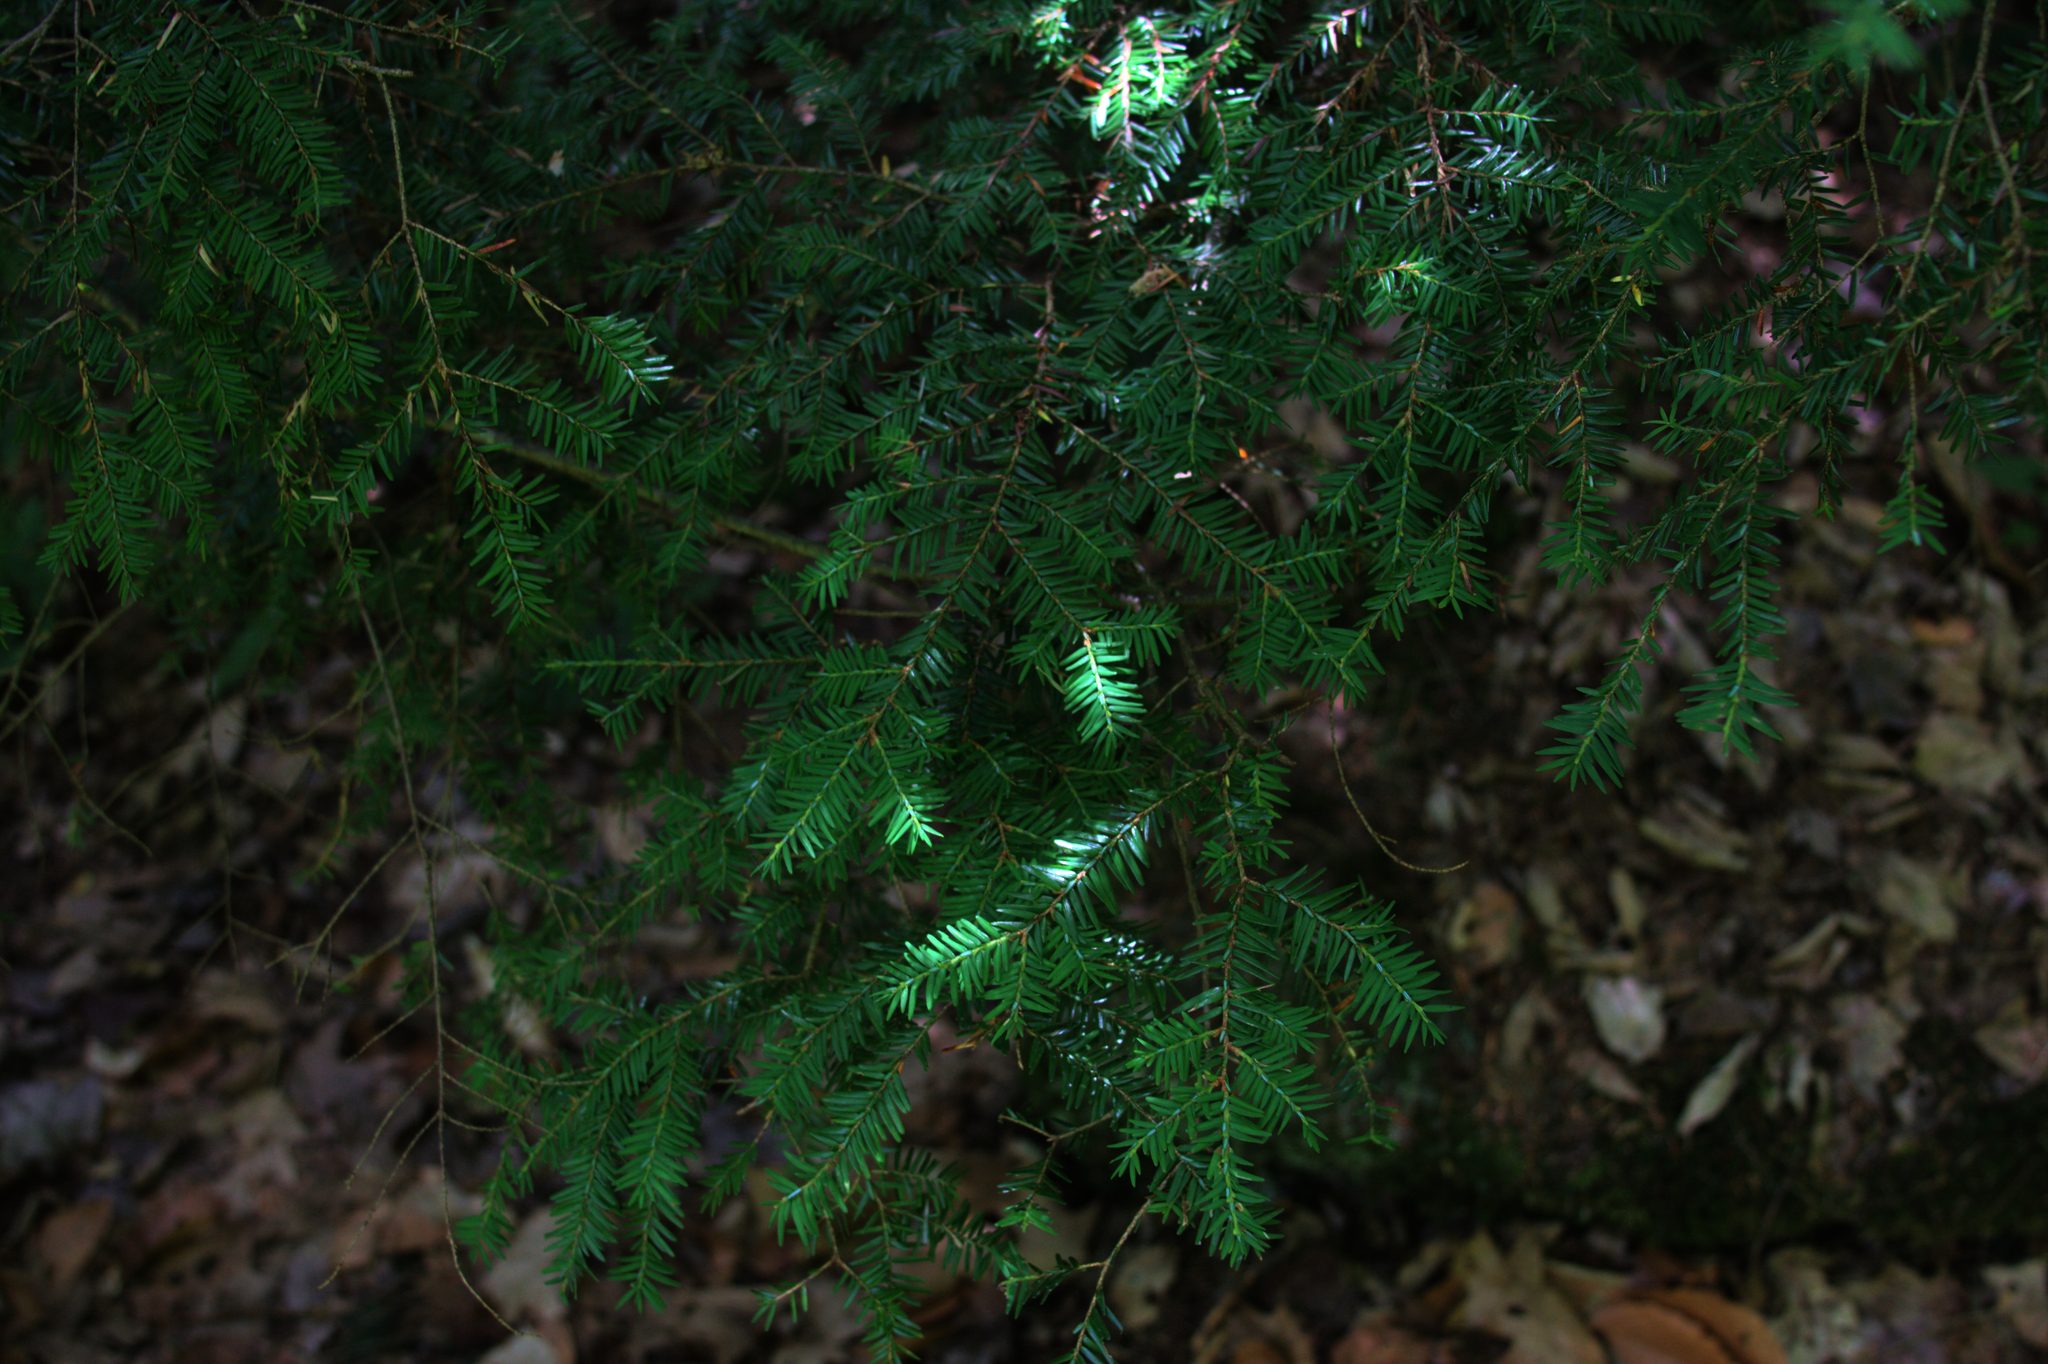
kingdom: Plantae
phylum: Tracheophyta
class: Pinopsida
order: Pinales
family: Pinaceae
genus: Tsuga
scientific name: Tsuga canadensis
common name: Eastern hemlock
